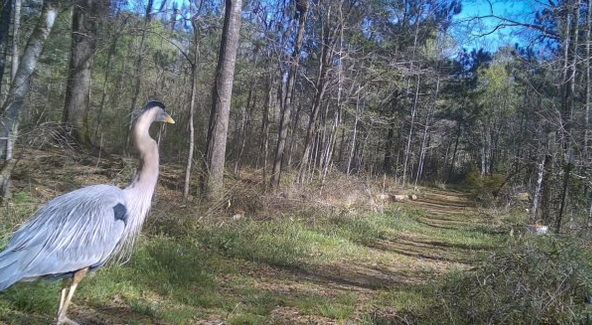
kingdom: Animalia
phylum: Chordata
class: Aves
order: Pelecaniformes
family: Ardeidae
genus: Ardea
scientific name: Ardea herodias
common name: Great blue heron
